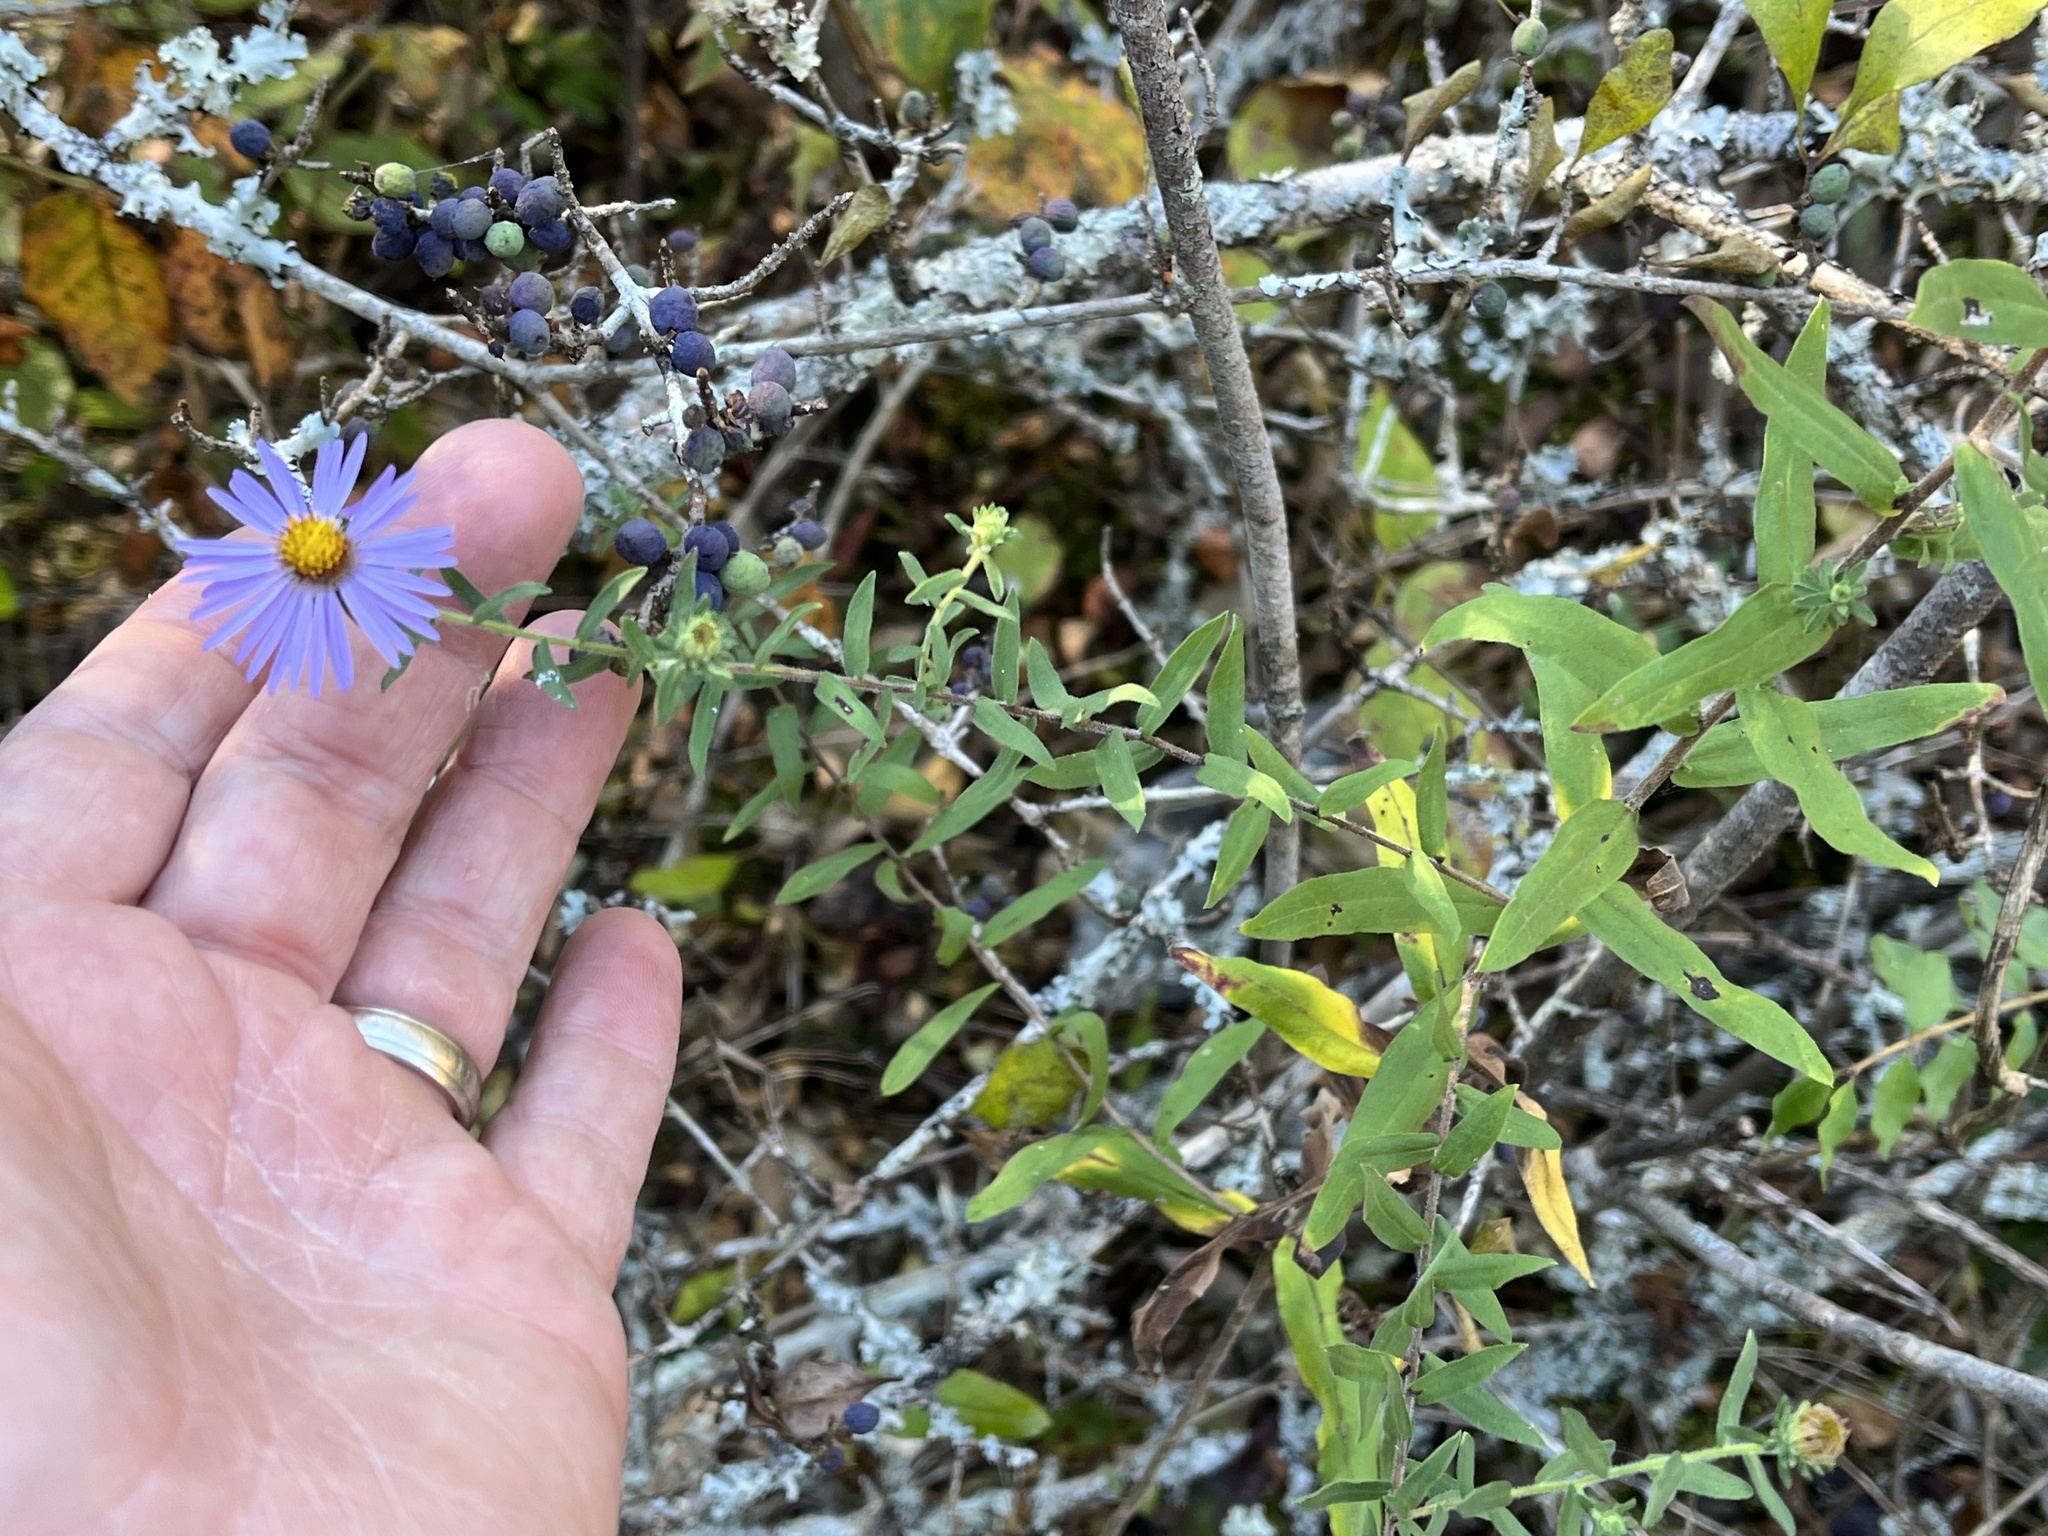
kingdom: Plantae
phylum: Tracheophyta
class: Magnoliopsida
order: Asterales
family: Asteraceae
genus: Symphyotrichum
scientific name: Symphyotrichum oblongifolium
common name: Aromatic aster
